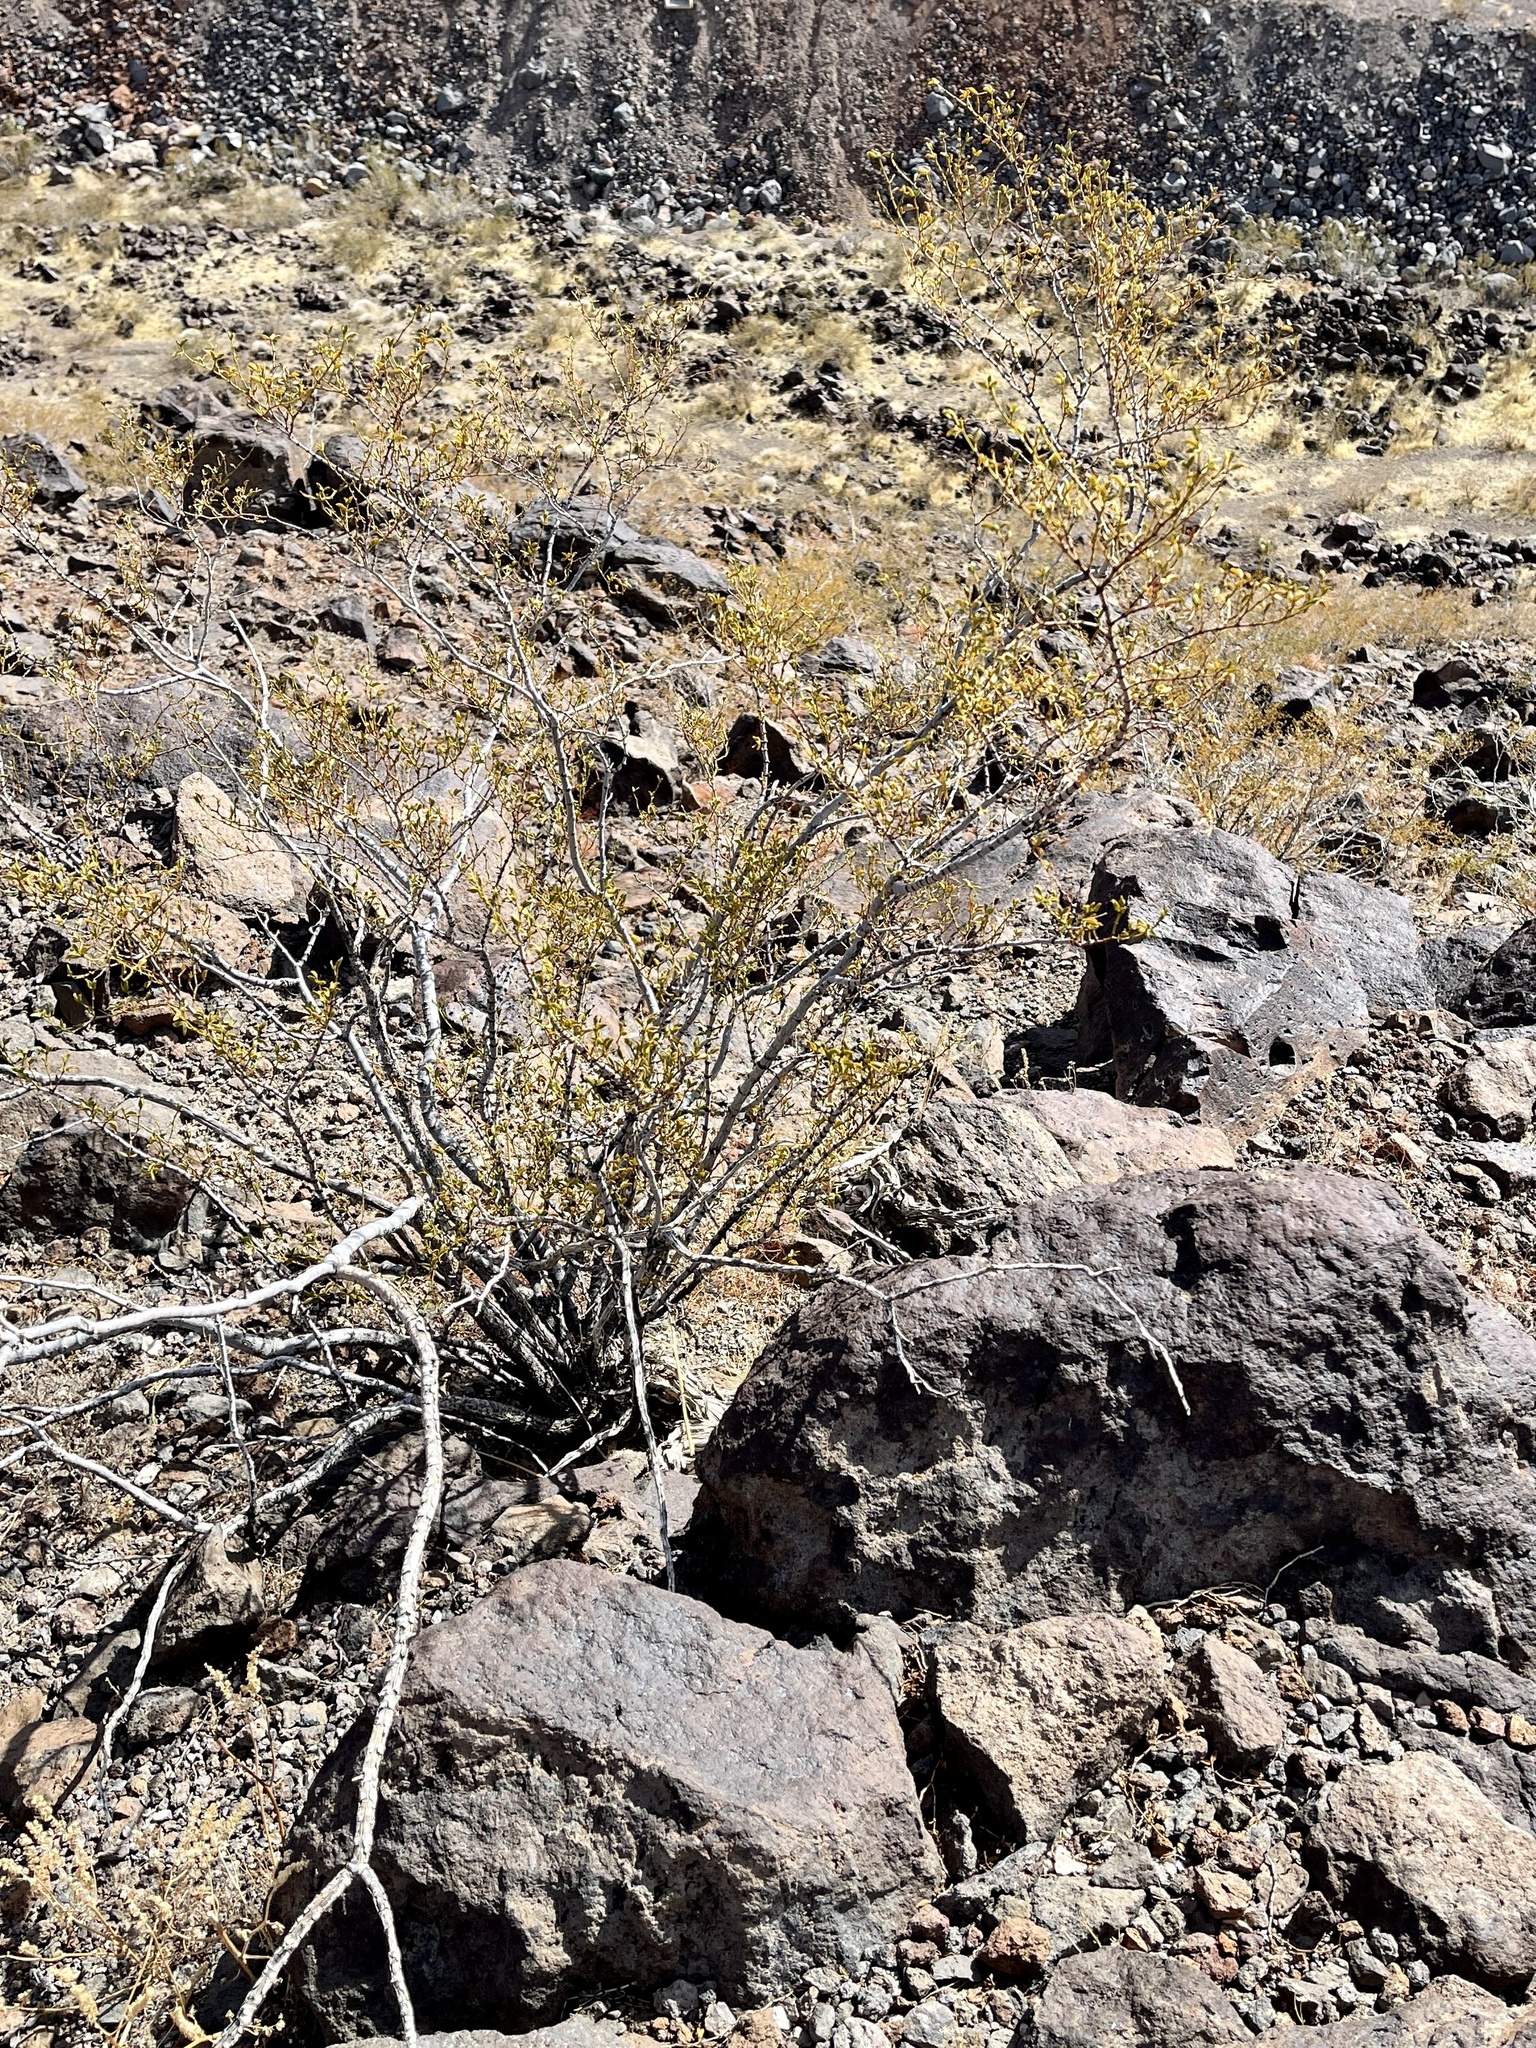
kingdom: Plantae
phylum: Tracheophyta
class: Magnoliopsida
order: Zygophyllales
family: Zygophyllaceae
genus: Larrea
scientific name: Larrea tridentata
